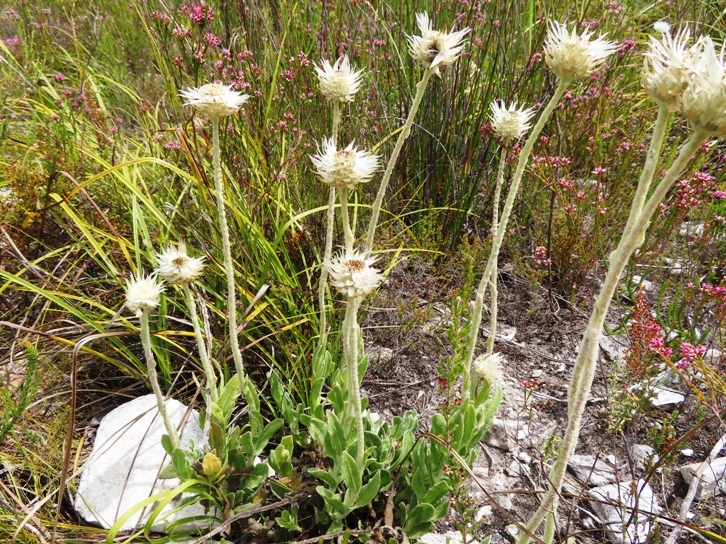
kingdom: Plantae
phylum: Tracheophyta
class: Magnoliopsida
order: Asterales
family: Asteraceae
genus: Syncarpha
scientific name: Syncarpha speciosissima
